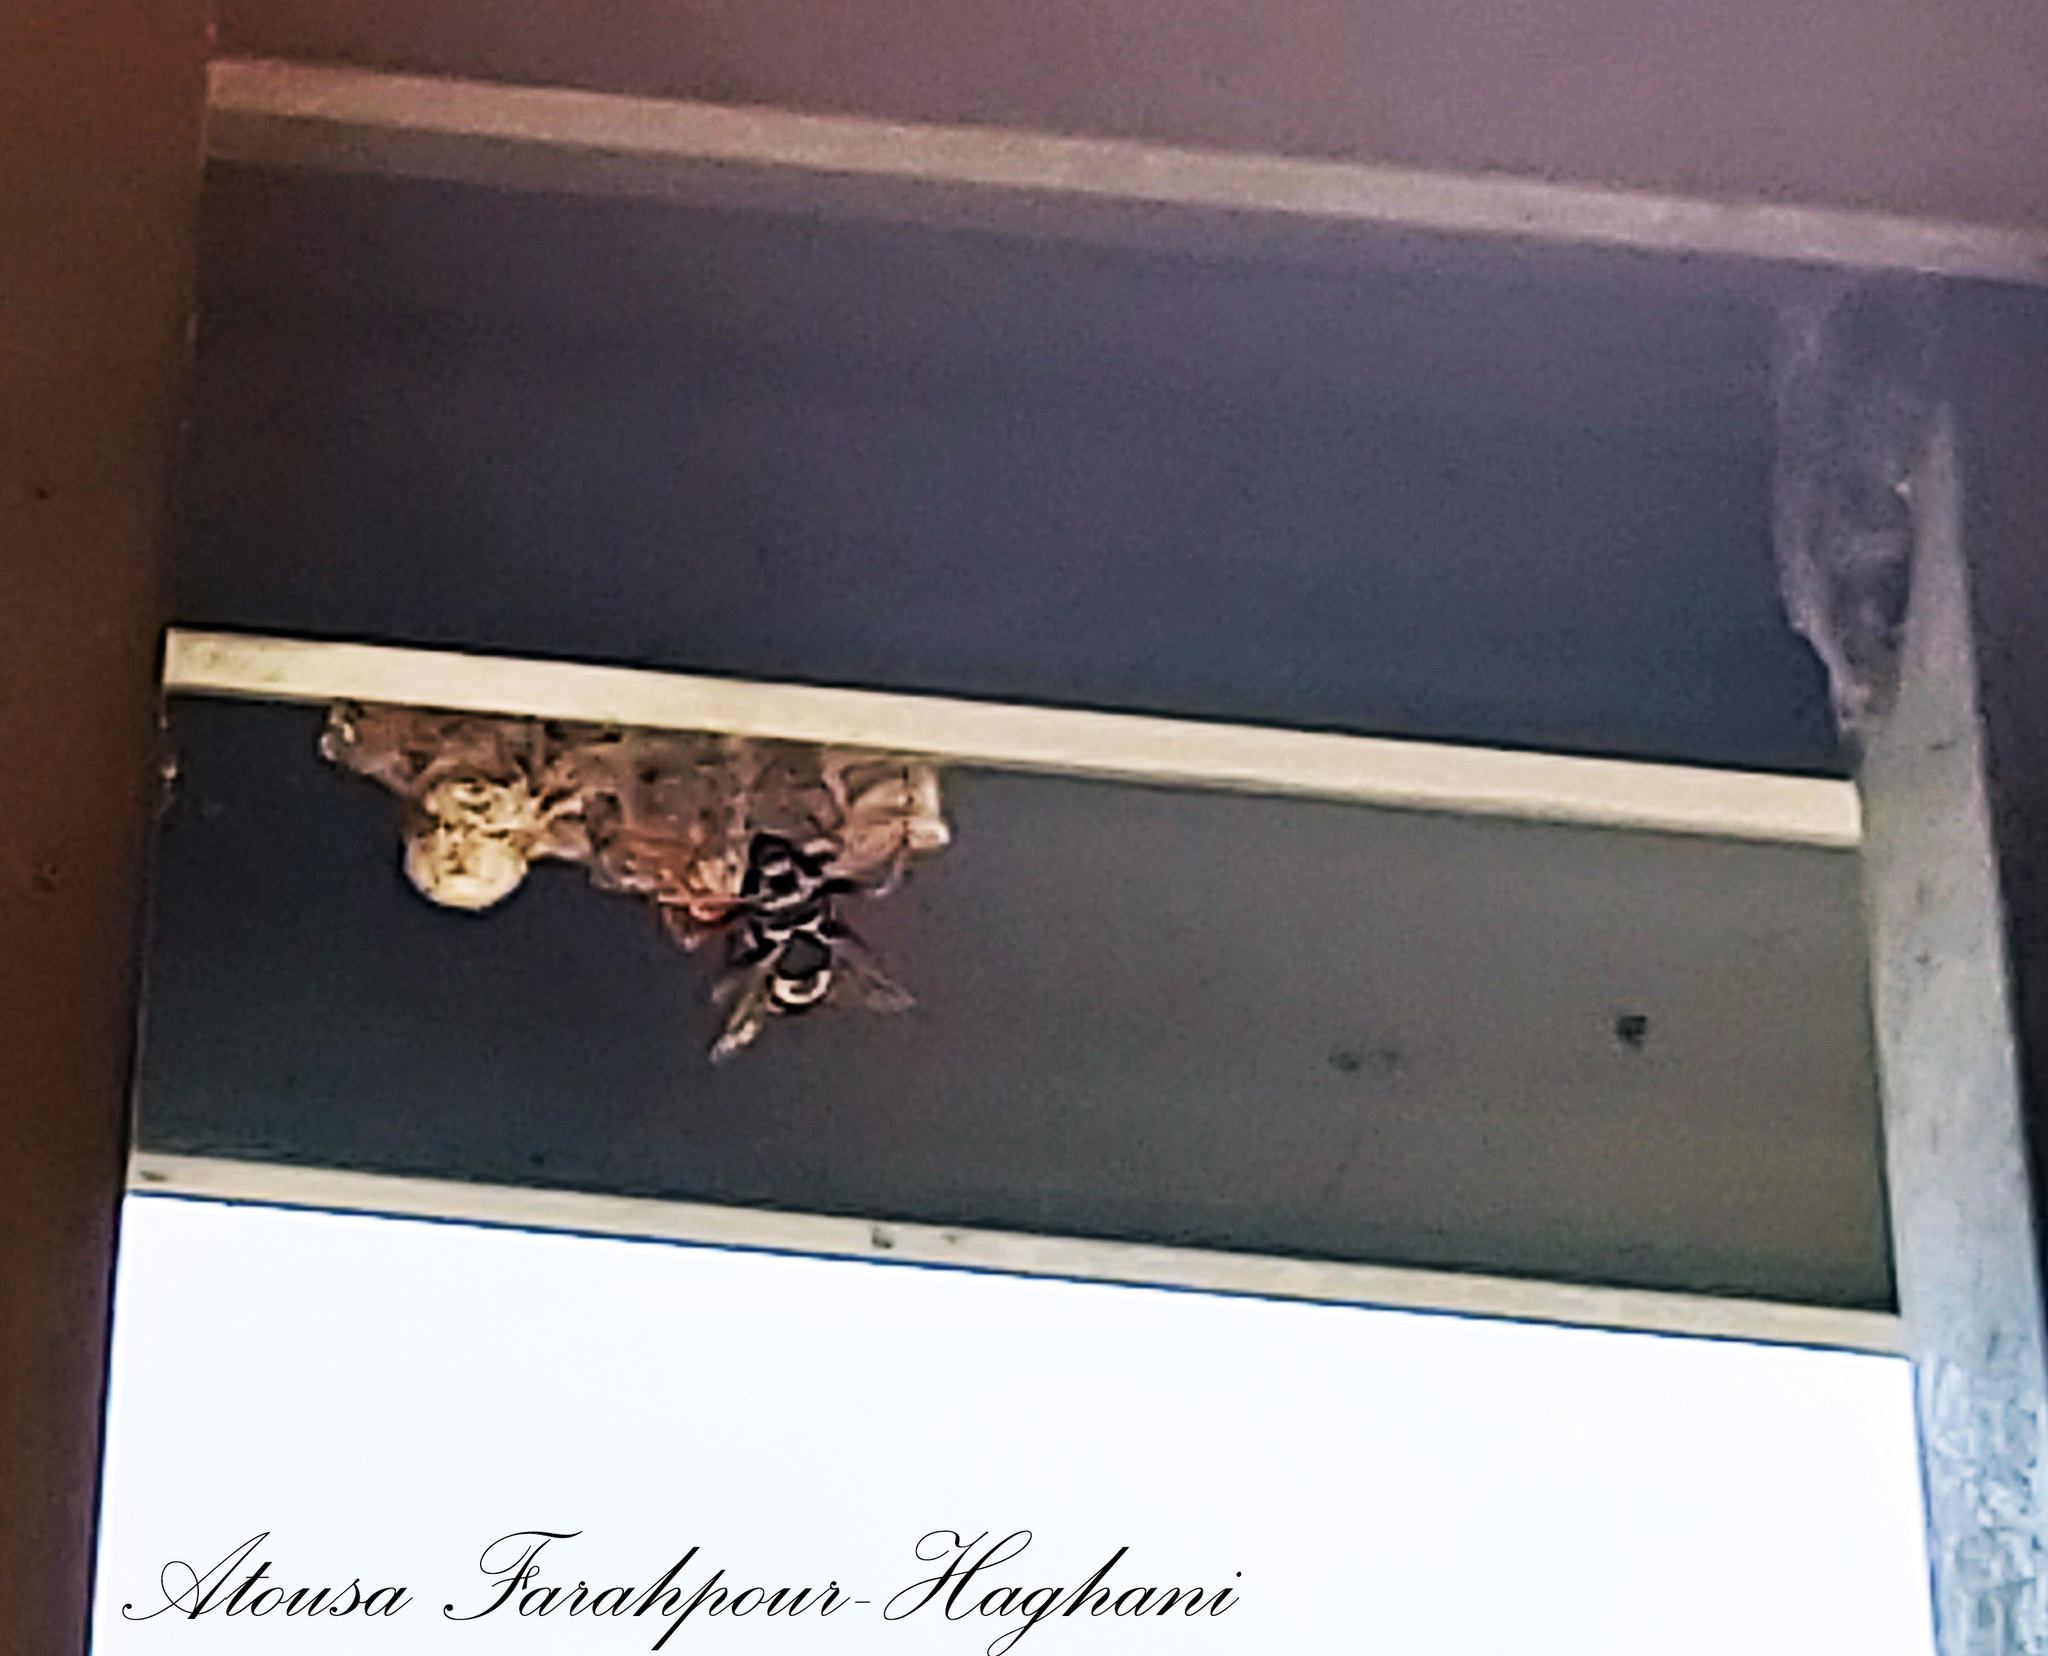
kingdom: Animalia
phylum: Arthropoda
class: Insecta
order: Hymenoptera
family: Eumenidae
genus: Polistes
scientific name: Polistes nimpha
